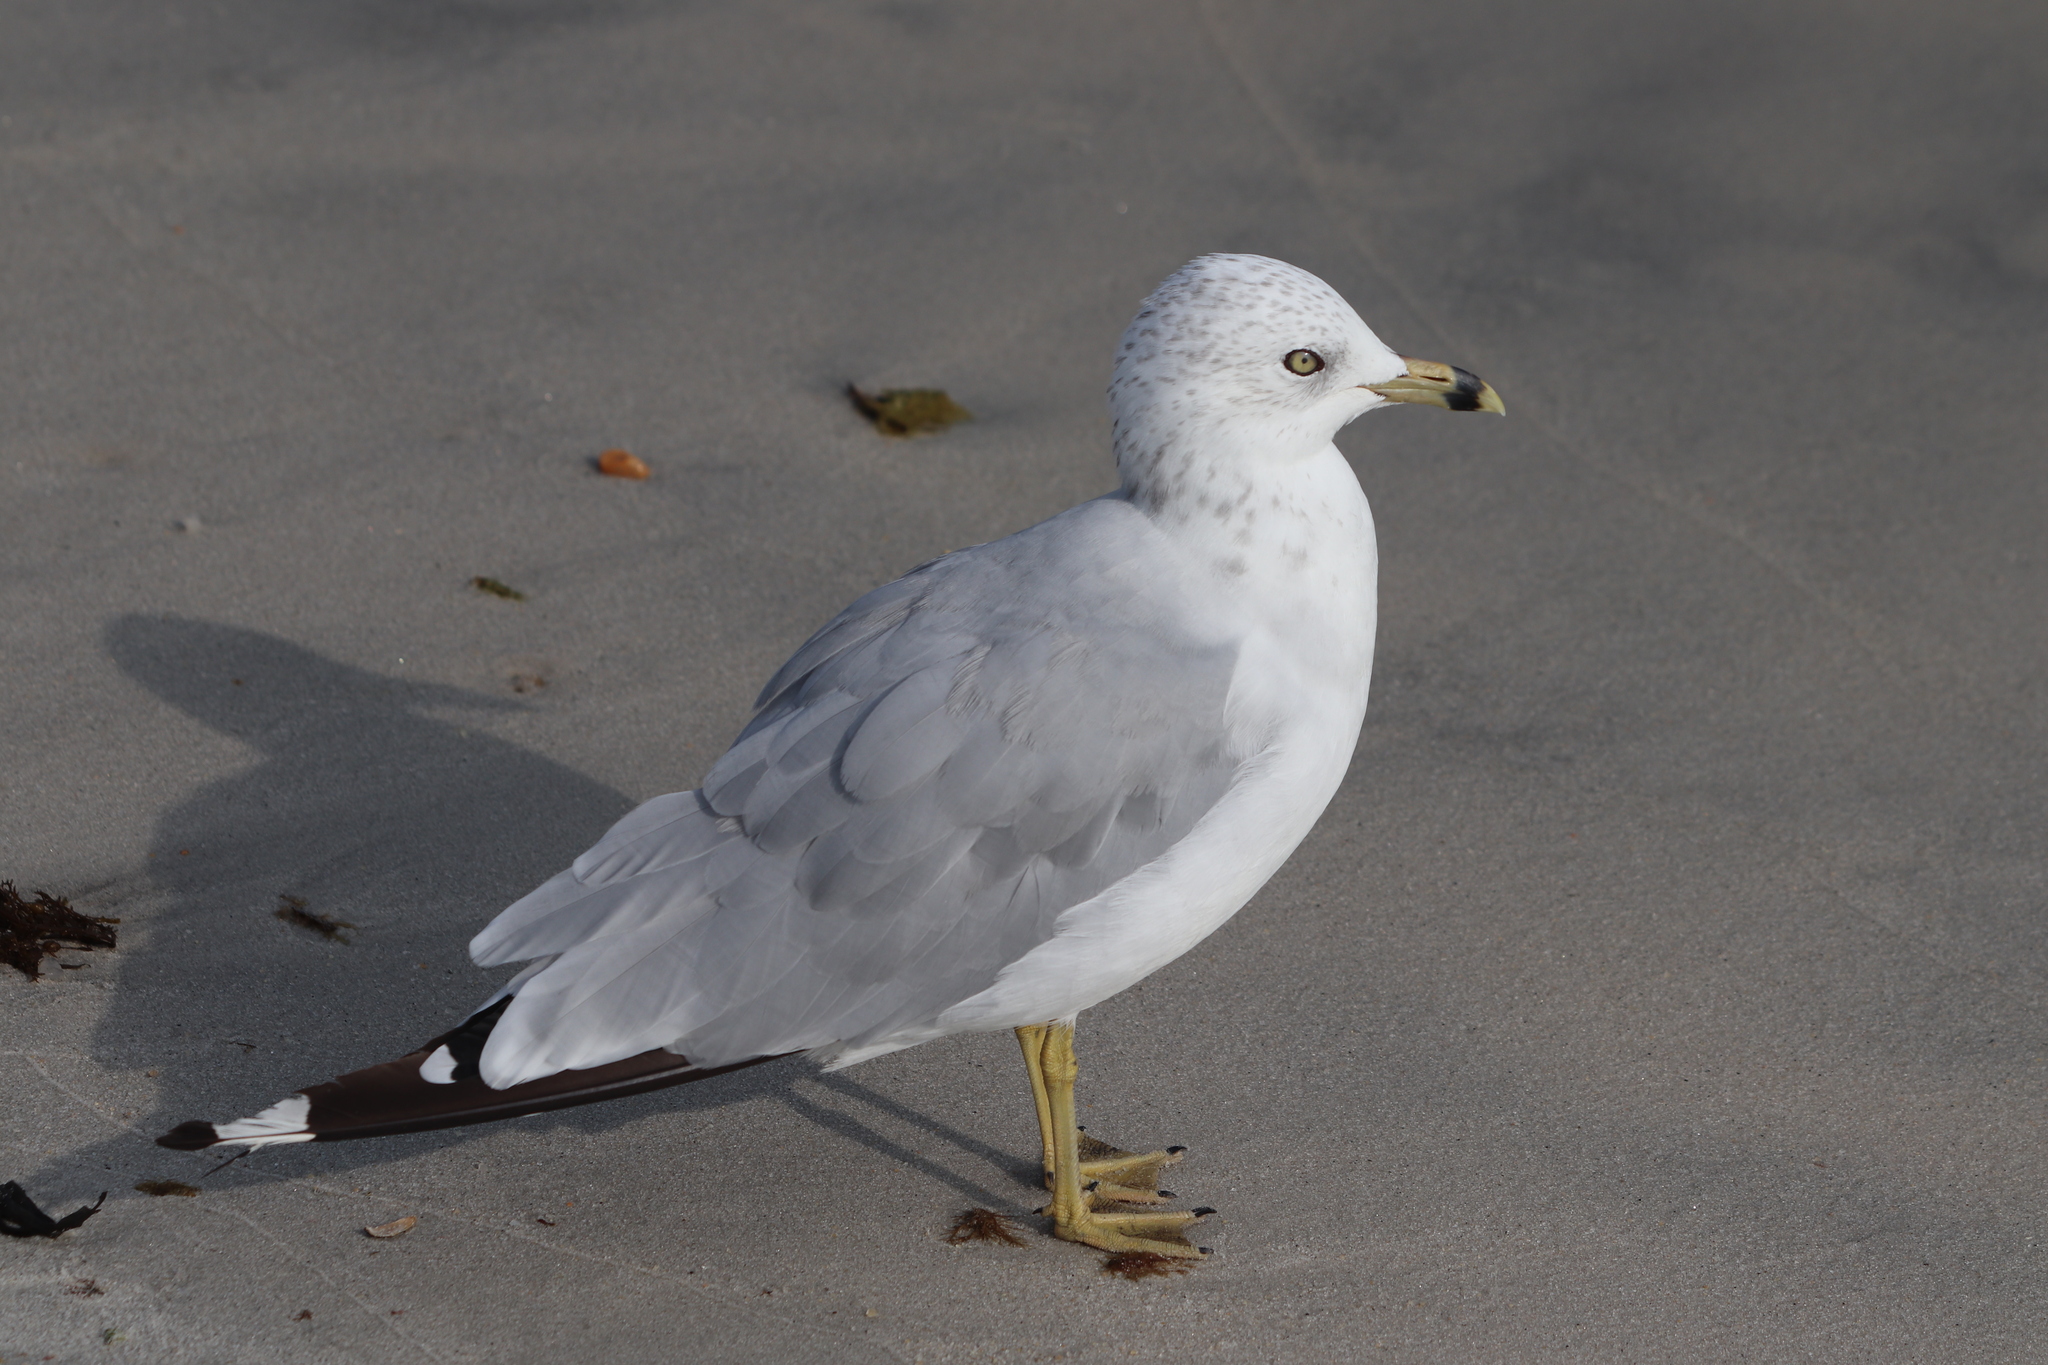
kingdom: Animalia
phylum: Chordata
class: Aves
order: Charadriiformes
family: Laridae
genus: Larus
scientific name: Larus delawarensis
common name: Ring-billed gull
